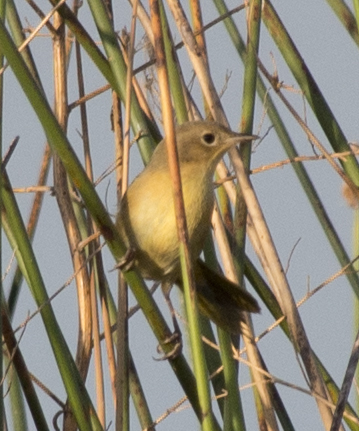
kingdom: Animalia
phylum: Chordata
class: Aves
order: Passeriformes
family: Parulidae
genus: Geothlypis
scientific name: Geothlypis trichas
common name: Common yellowthroat
